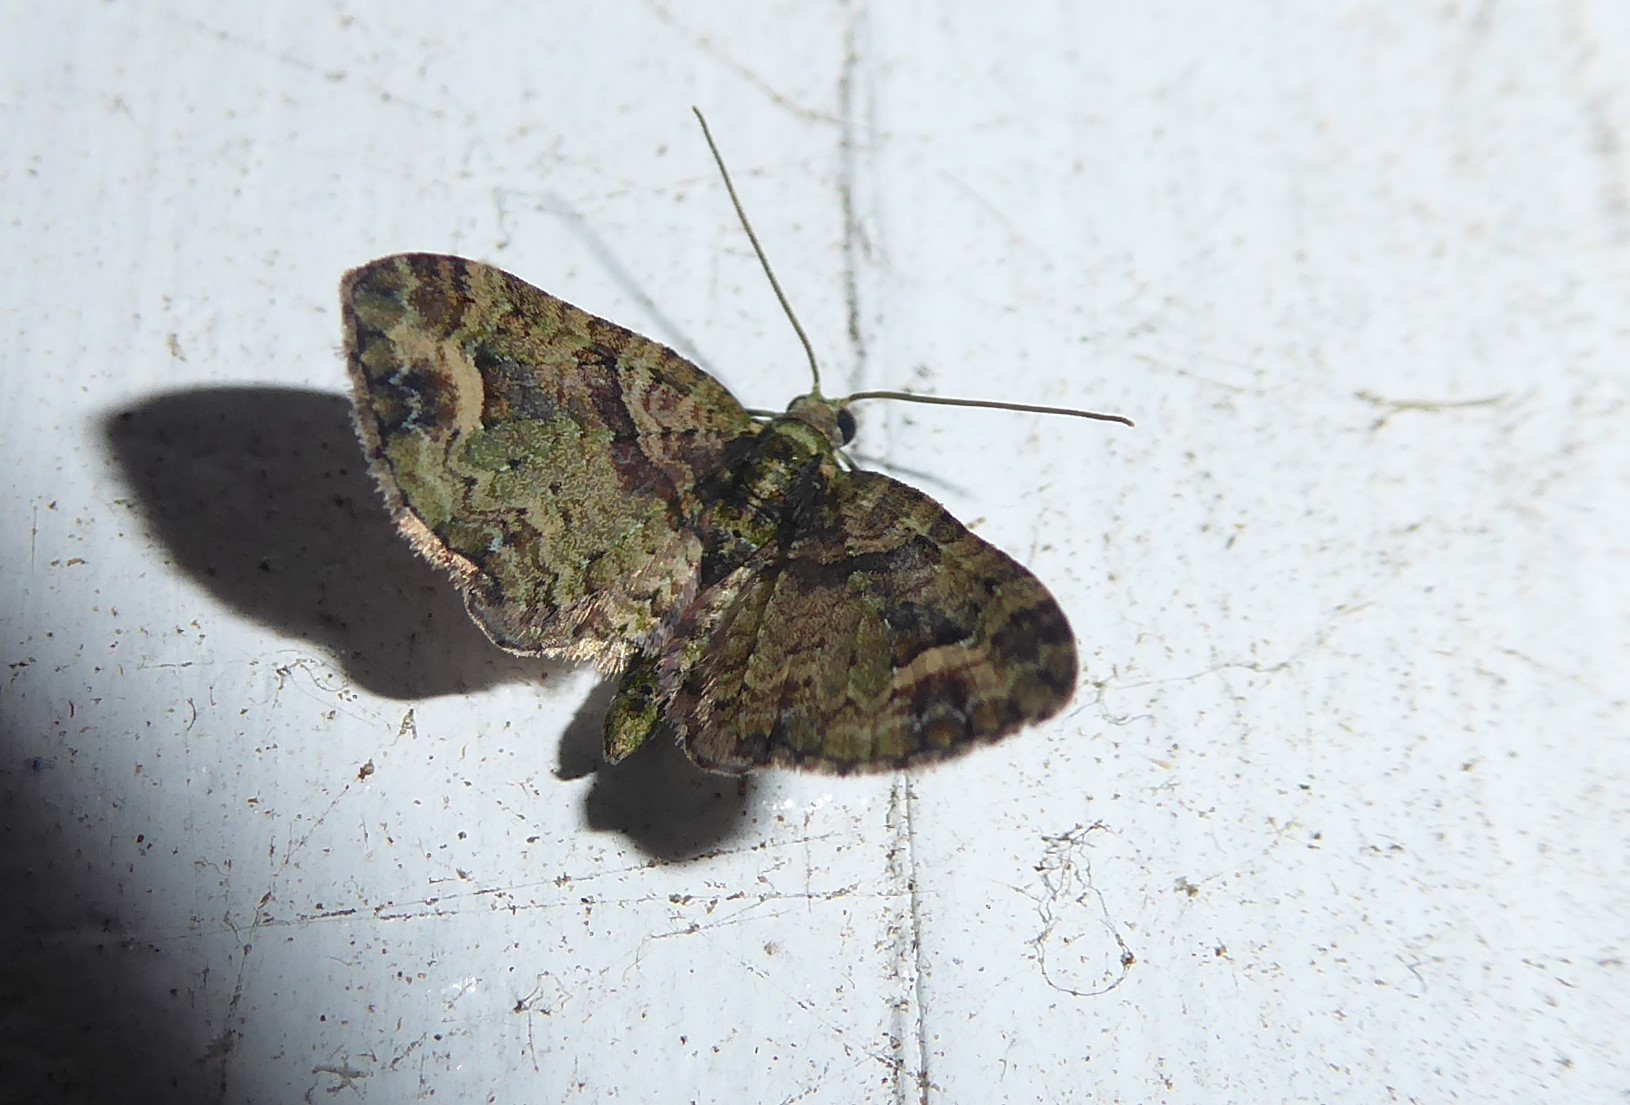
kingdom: Animalia
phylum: Arthropoda
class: Insecta
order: Lepidoptera
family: Geometridae
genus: Idaea
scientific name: Idaea mutanda
